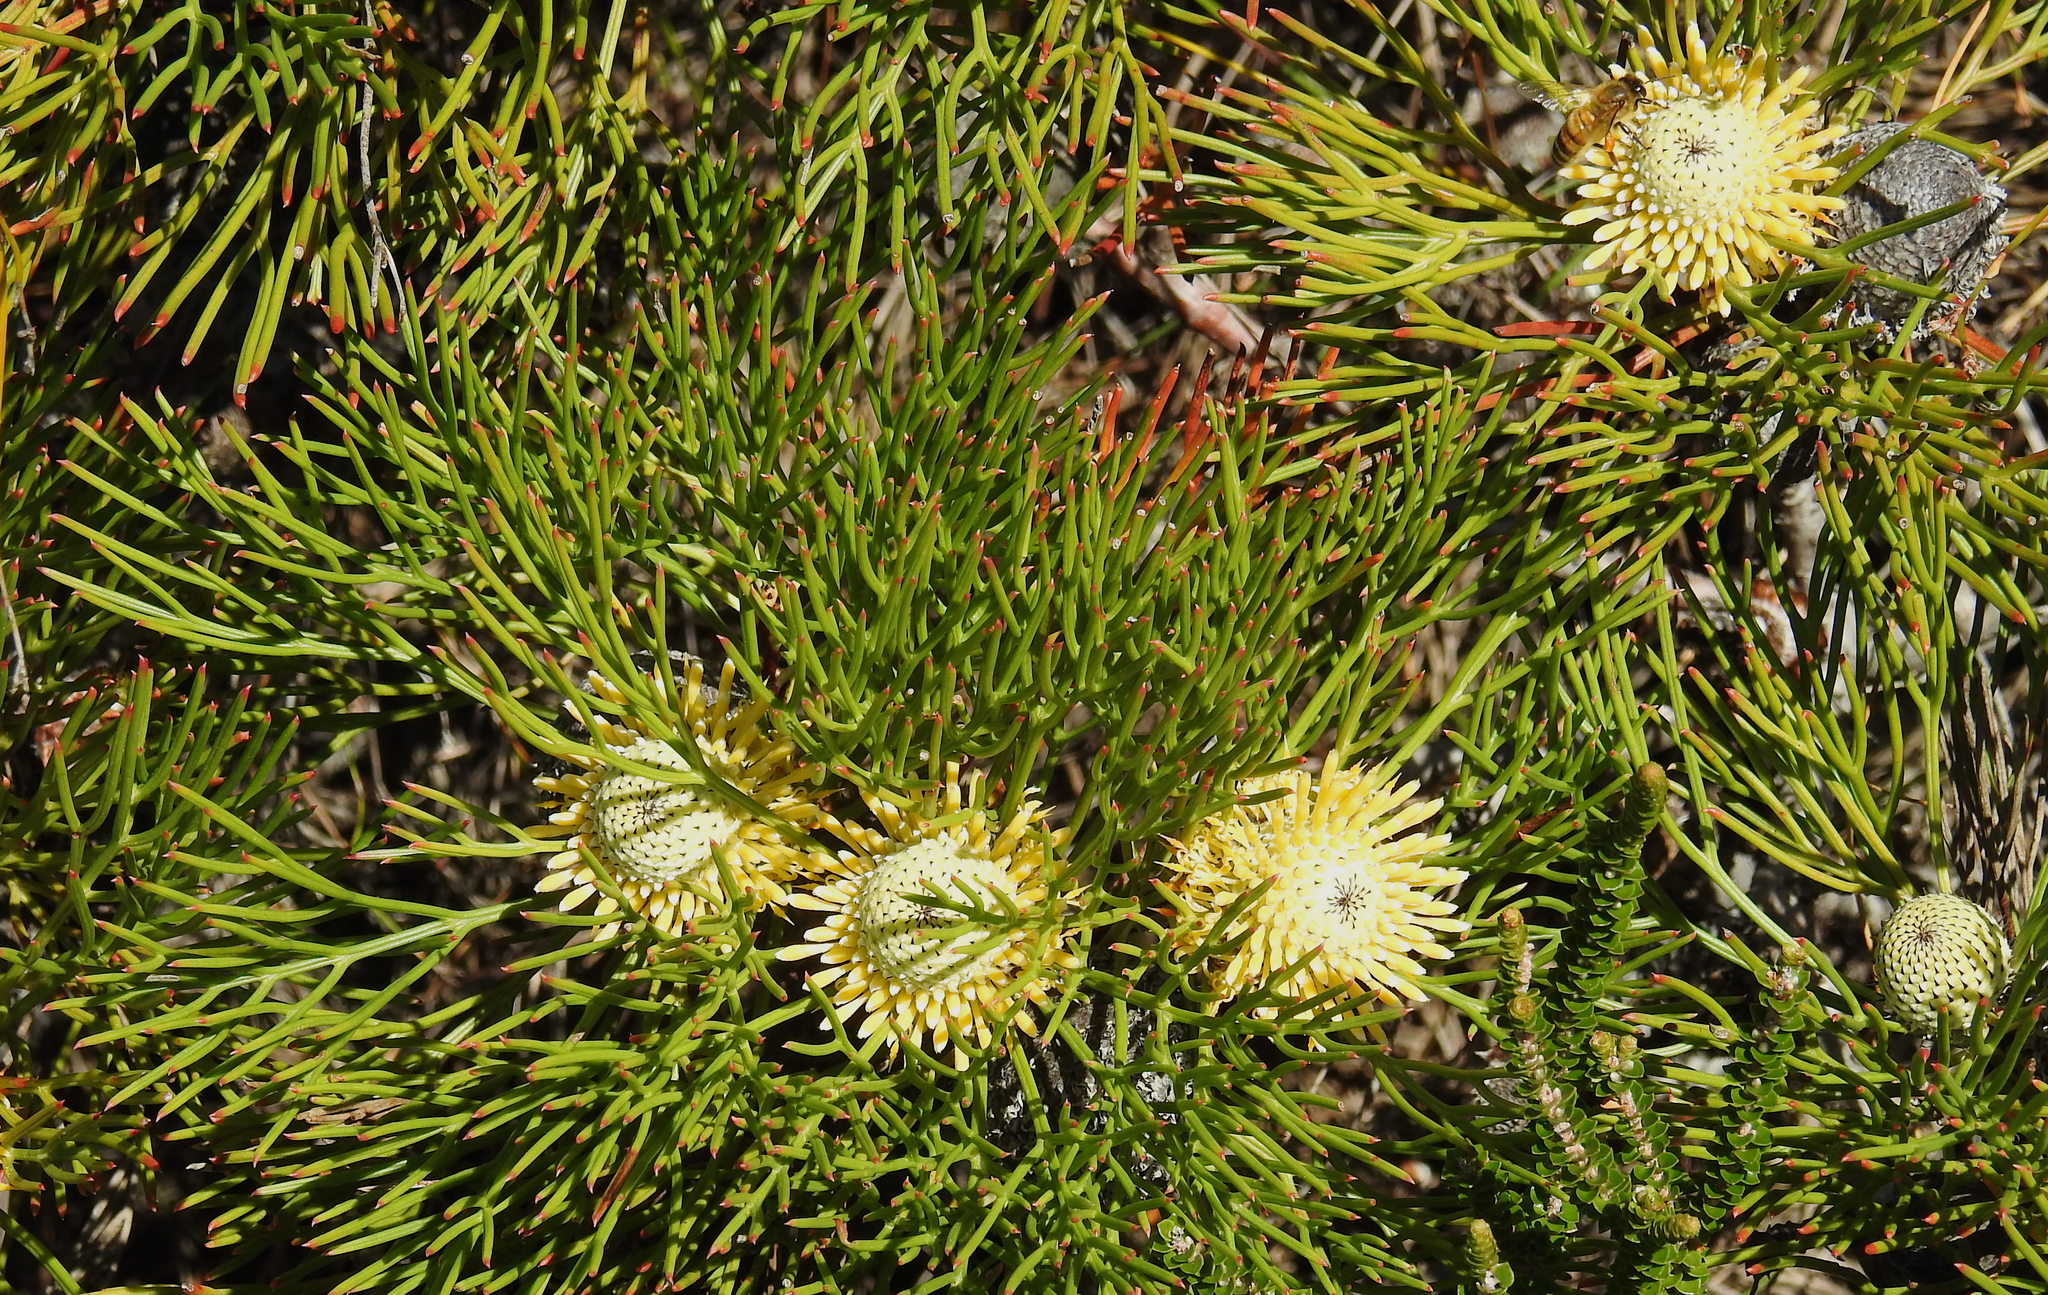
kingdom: Plantae
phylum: Tracheophyta
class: Magnoliopsida
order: Proteales
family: Proteaceae
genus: Isopogon
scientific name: Isopogon anethifolius
